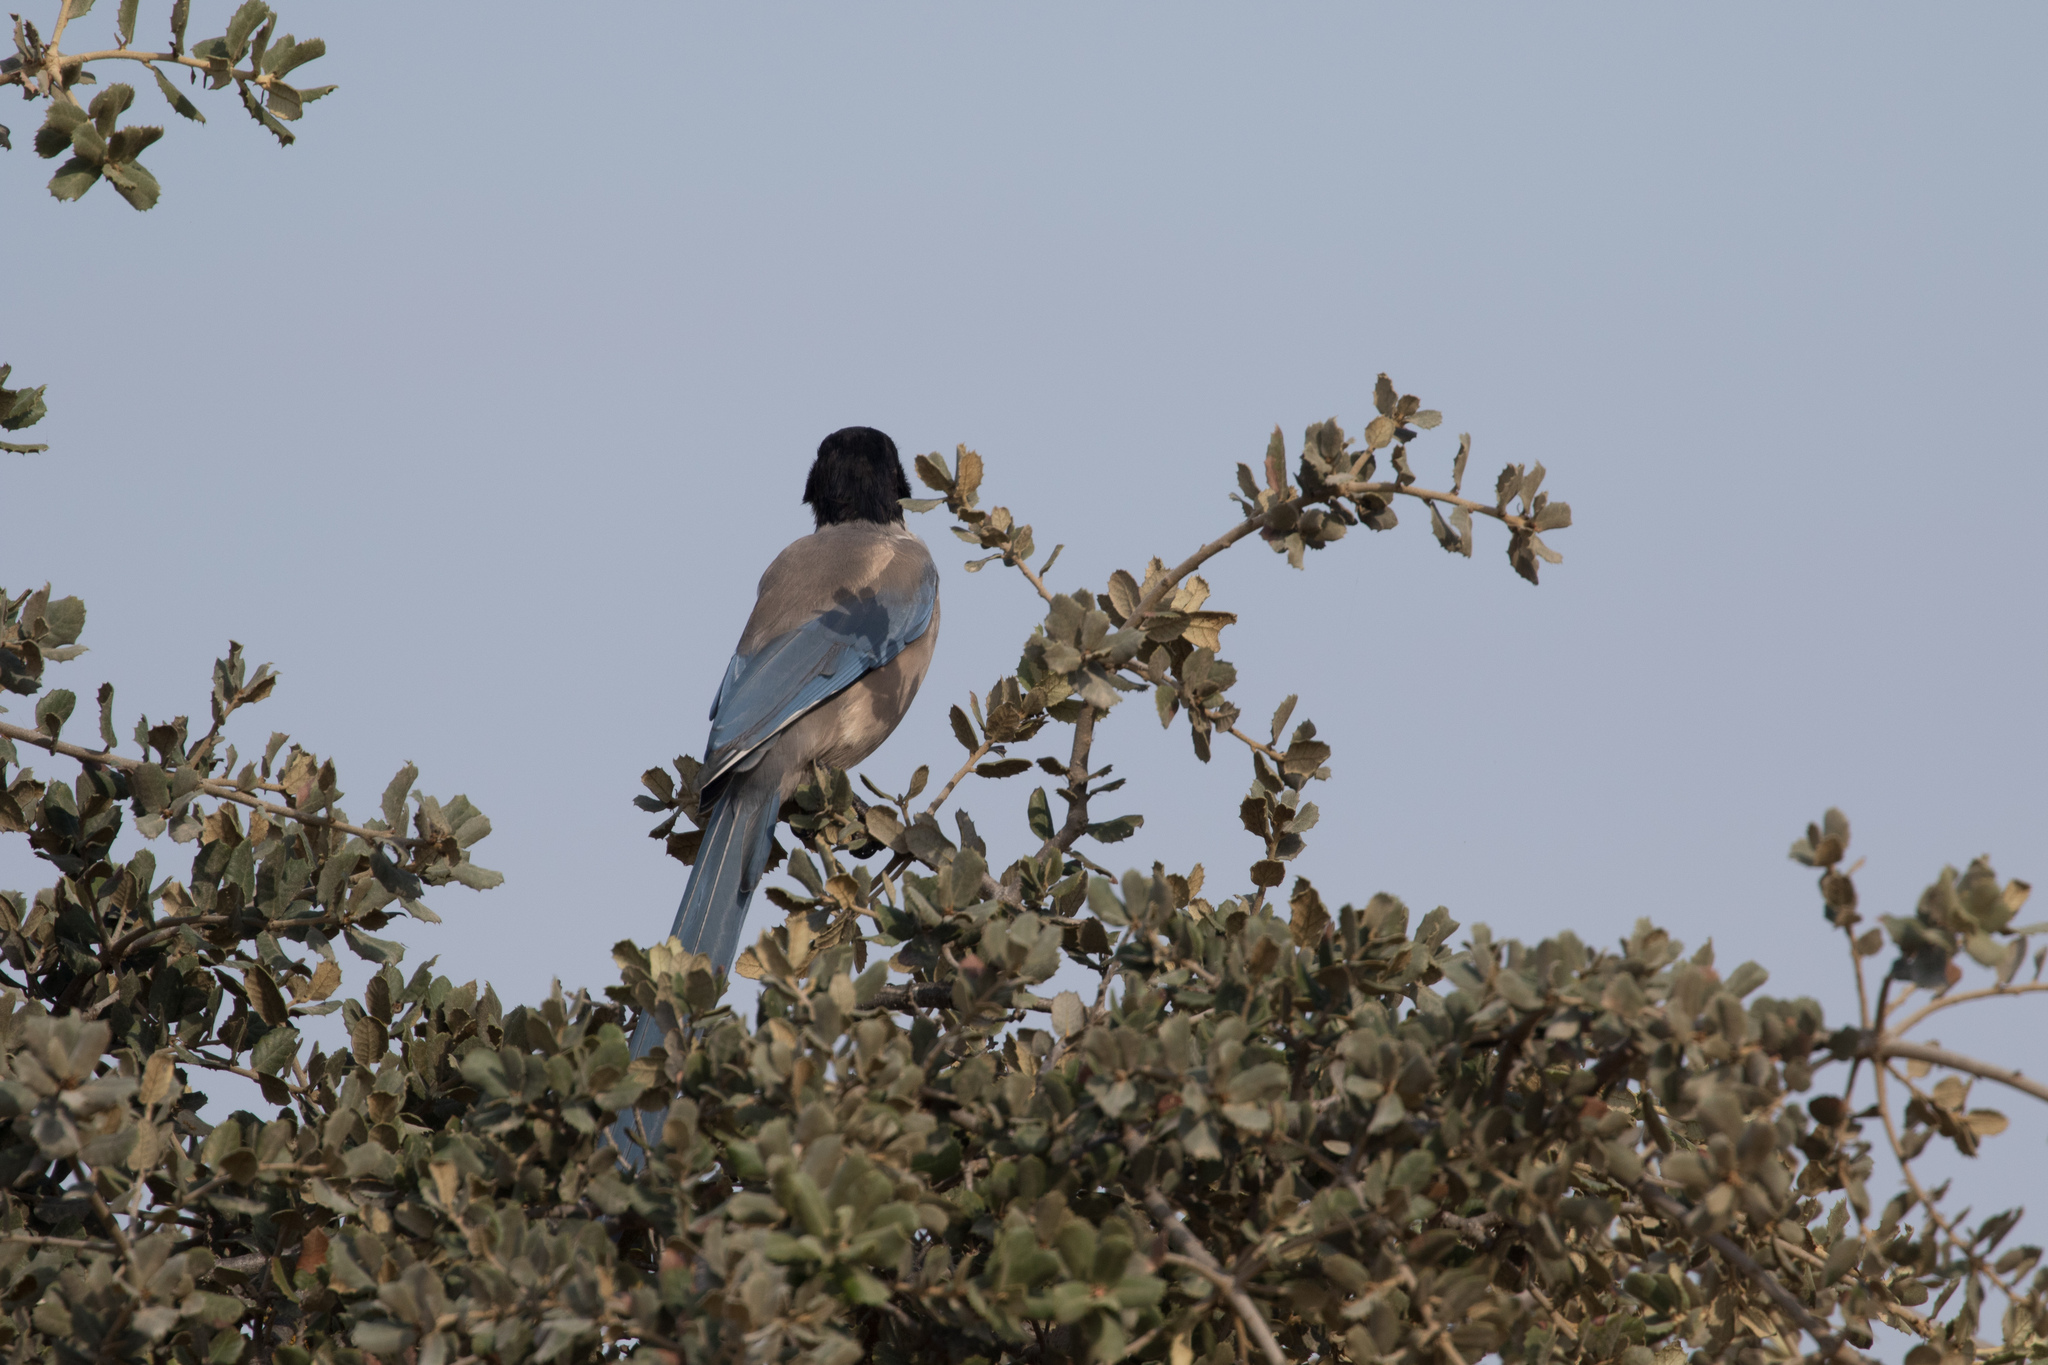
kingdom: Animalia
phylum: Chordata
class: Aves
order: Passeriformes
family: Corvidae
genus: Cyanopica
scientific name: Cyanopica cooki
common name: Iberian magpie
